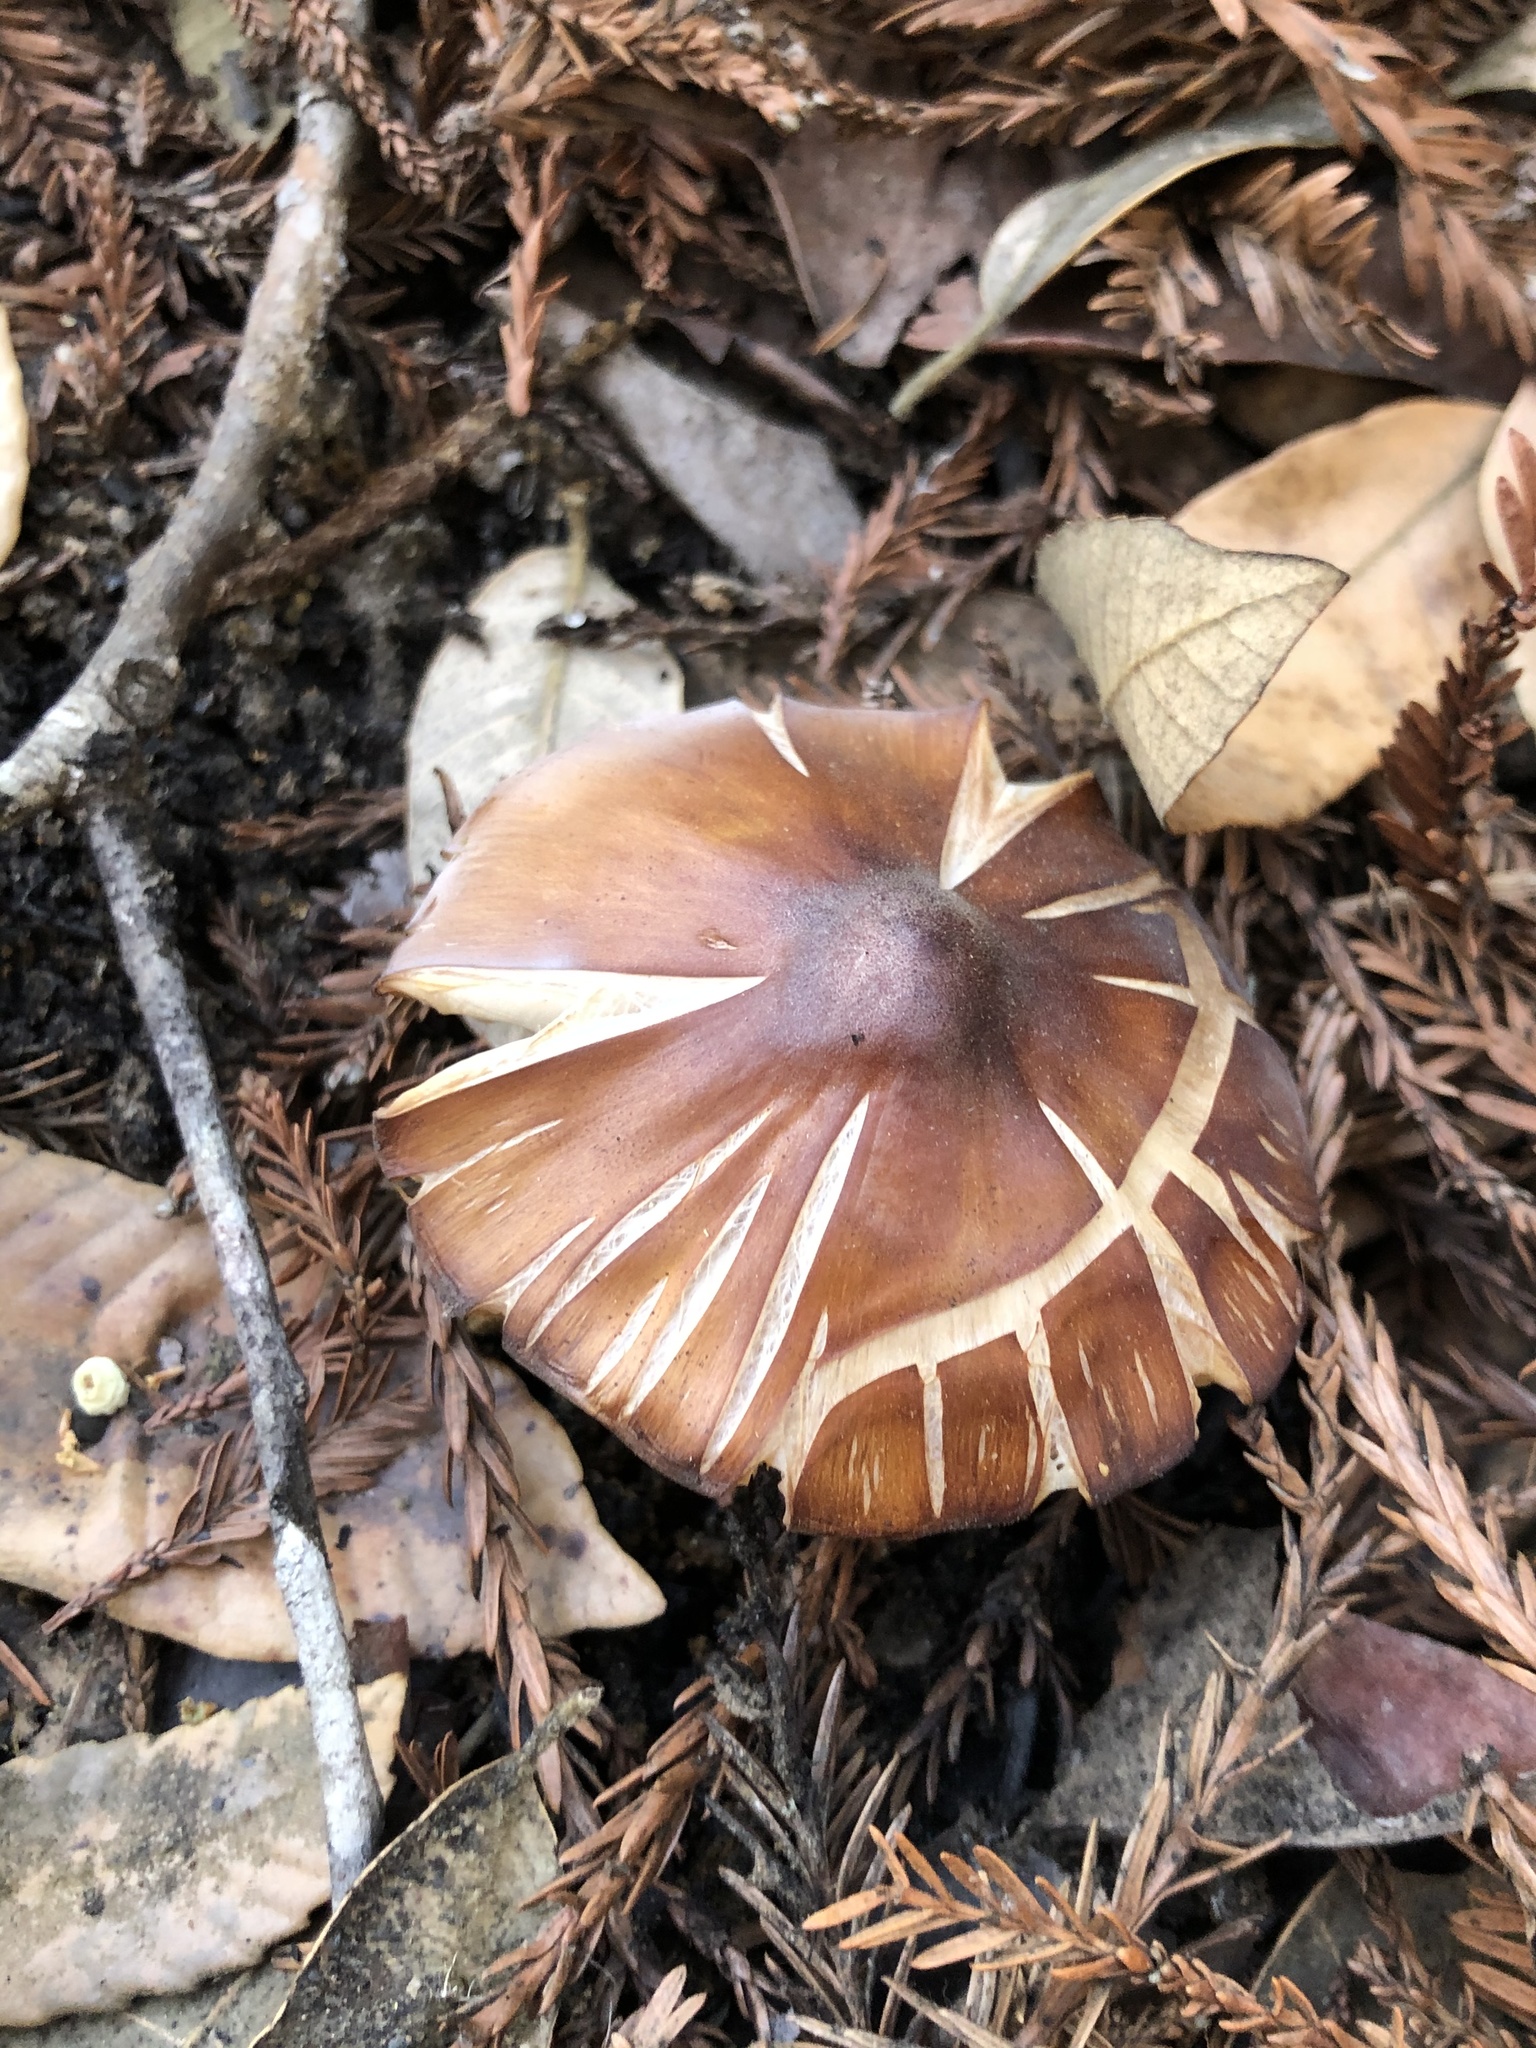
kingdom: Fungi
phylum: Basidiomycota
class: Agaricomycetes
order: Agaricales
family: Tricholomataceae
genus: Caulorhiza
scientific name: Caulorhiza umbonata
